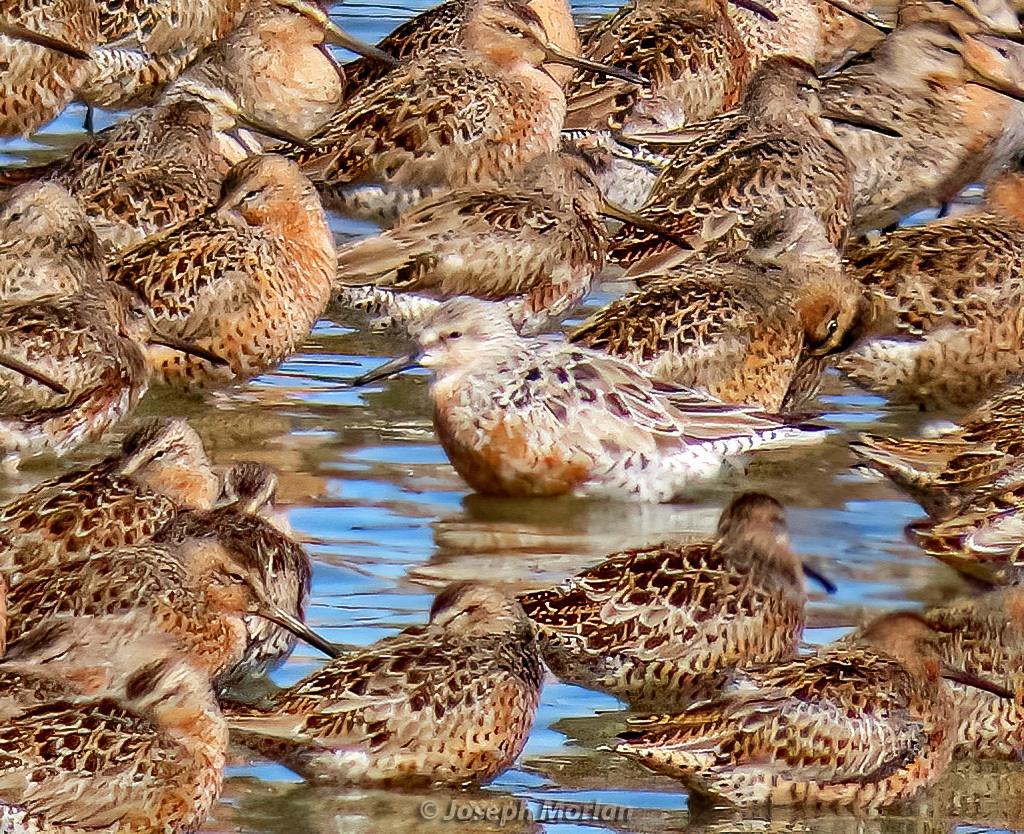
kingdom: Animalia
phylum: Chordata
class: Aves
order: Charadriiformes
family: Scolopacidae
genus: Calidris
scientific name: Calidris canutus
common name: Red knot
